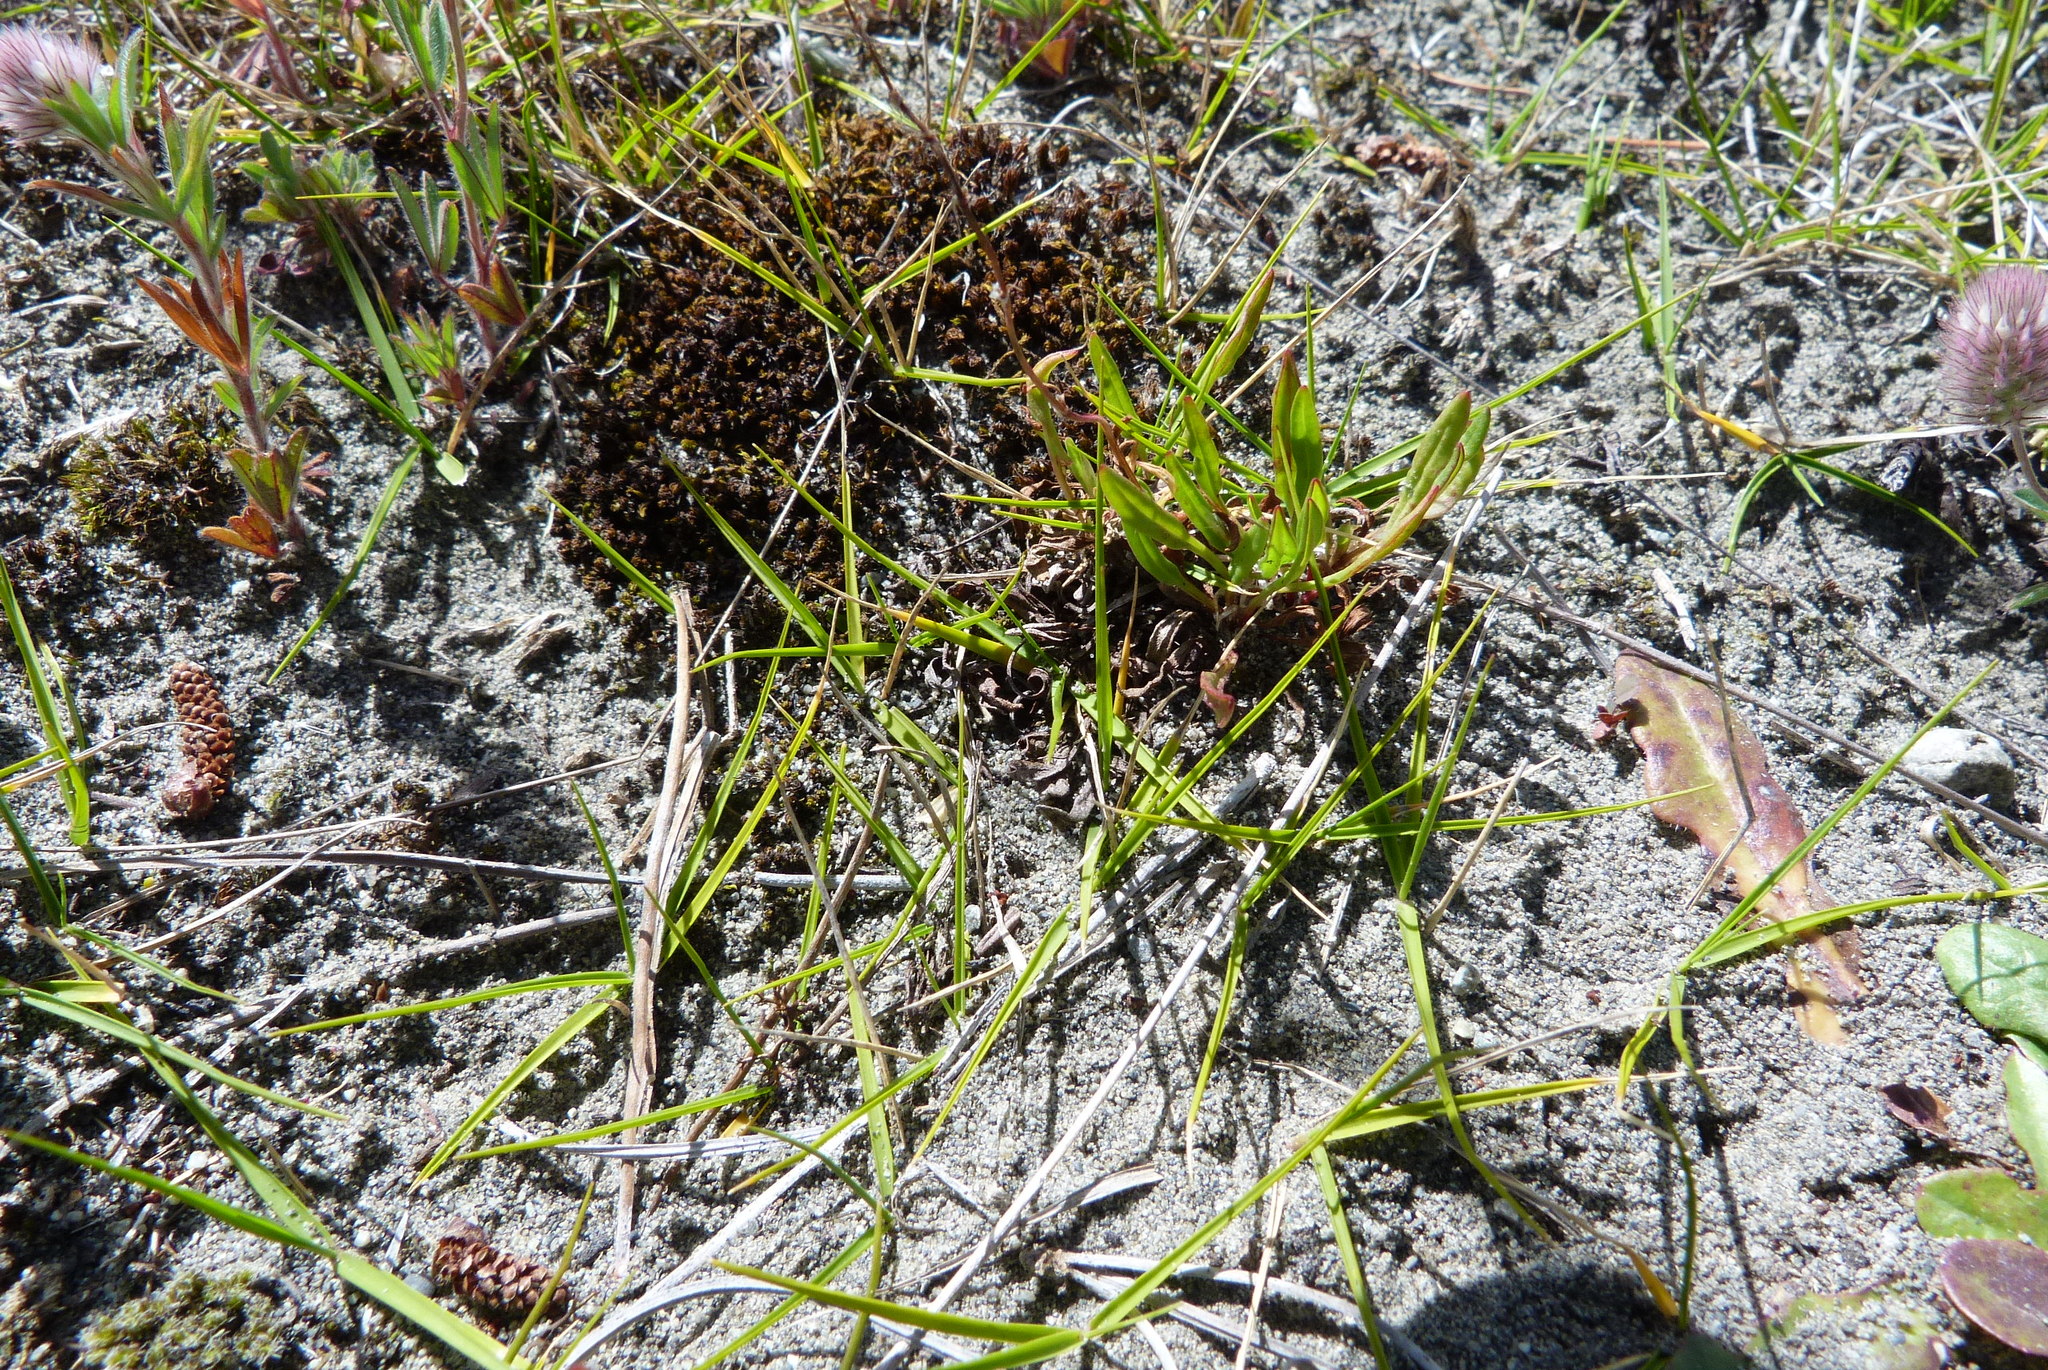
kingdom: Plantae
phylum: Tracheophyta
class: Liliopsida
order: Poales
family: Poaceae
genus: Zoysia
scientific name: Zoysia minima
